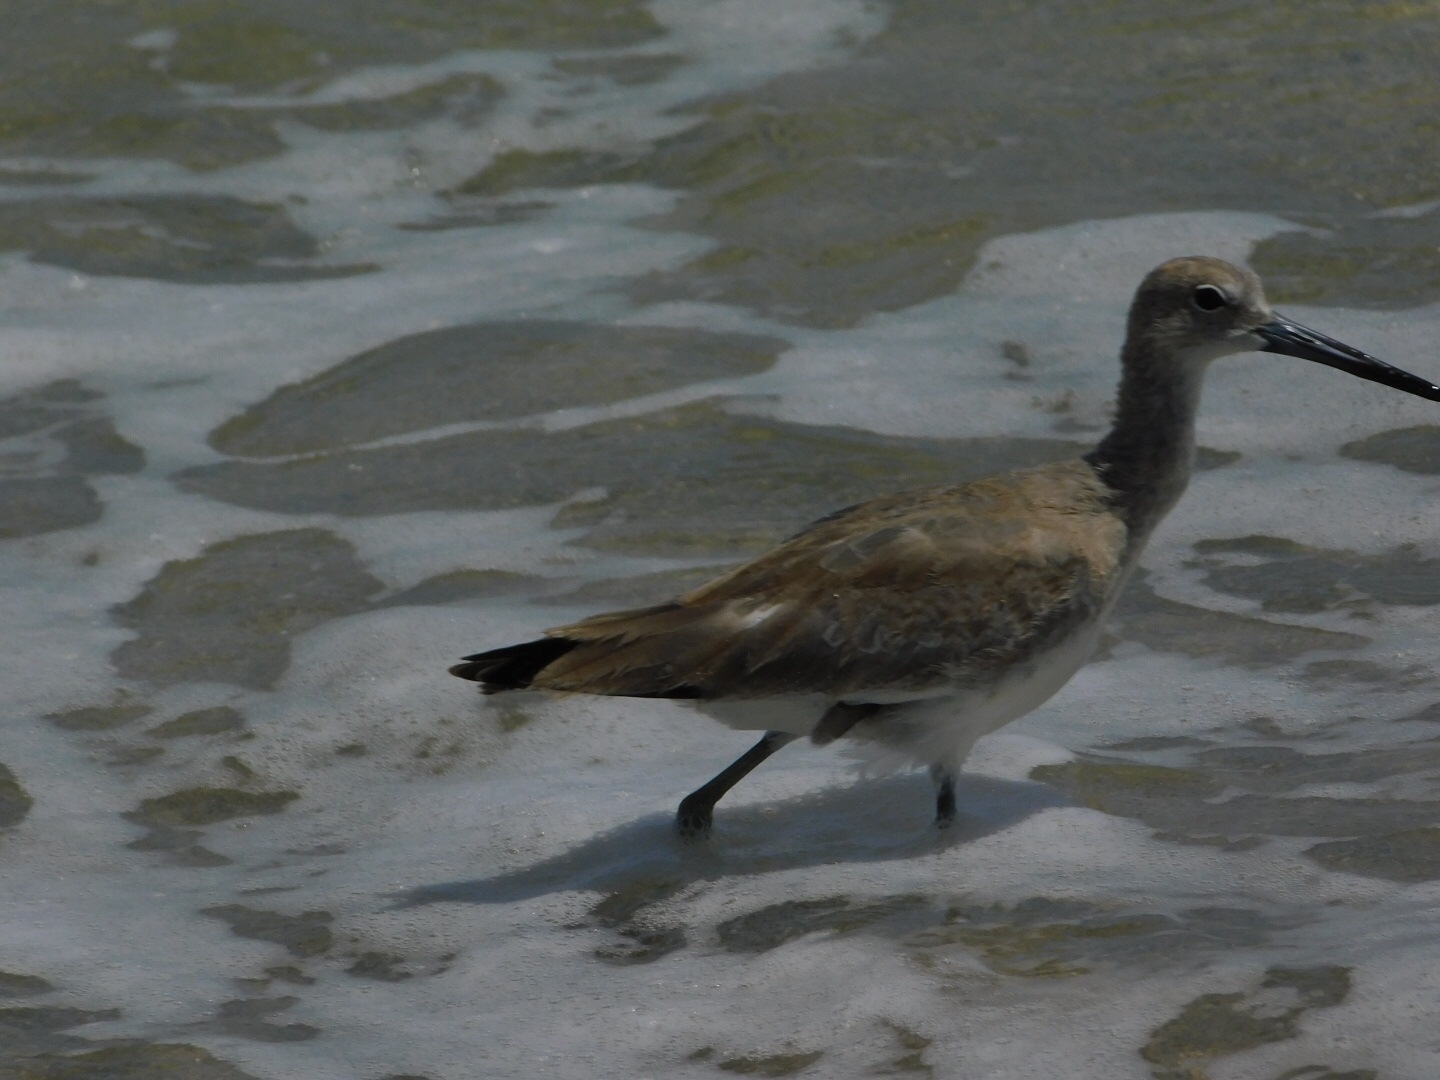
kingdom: Animalia
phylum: Chordata
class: Aves
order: Charadriiformes
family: Scolopacidae
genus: Tringa
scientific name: Tringa semipalmata
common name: Willet
